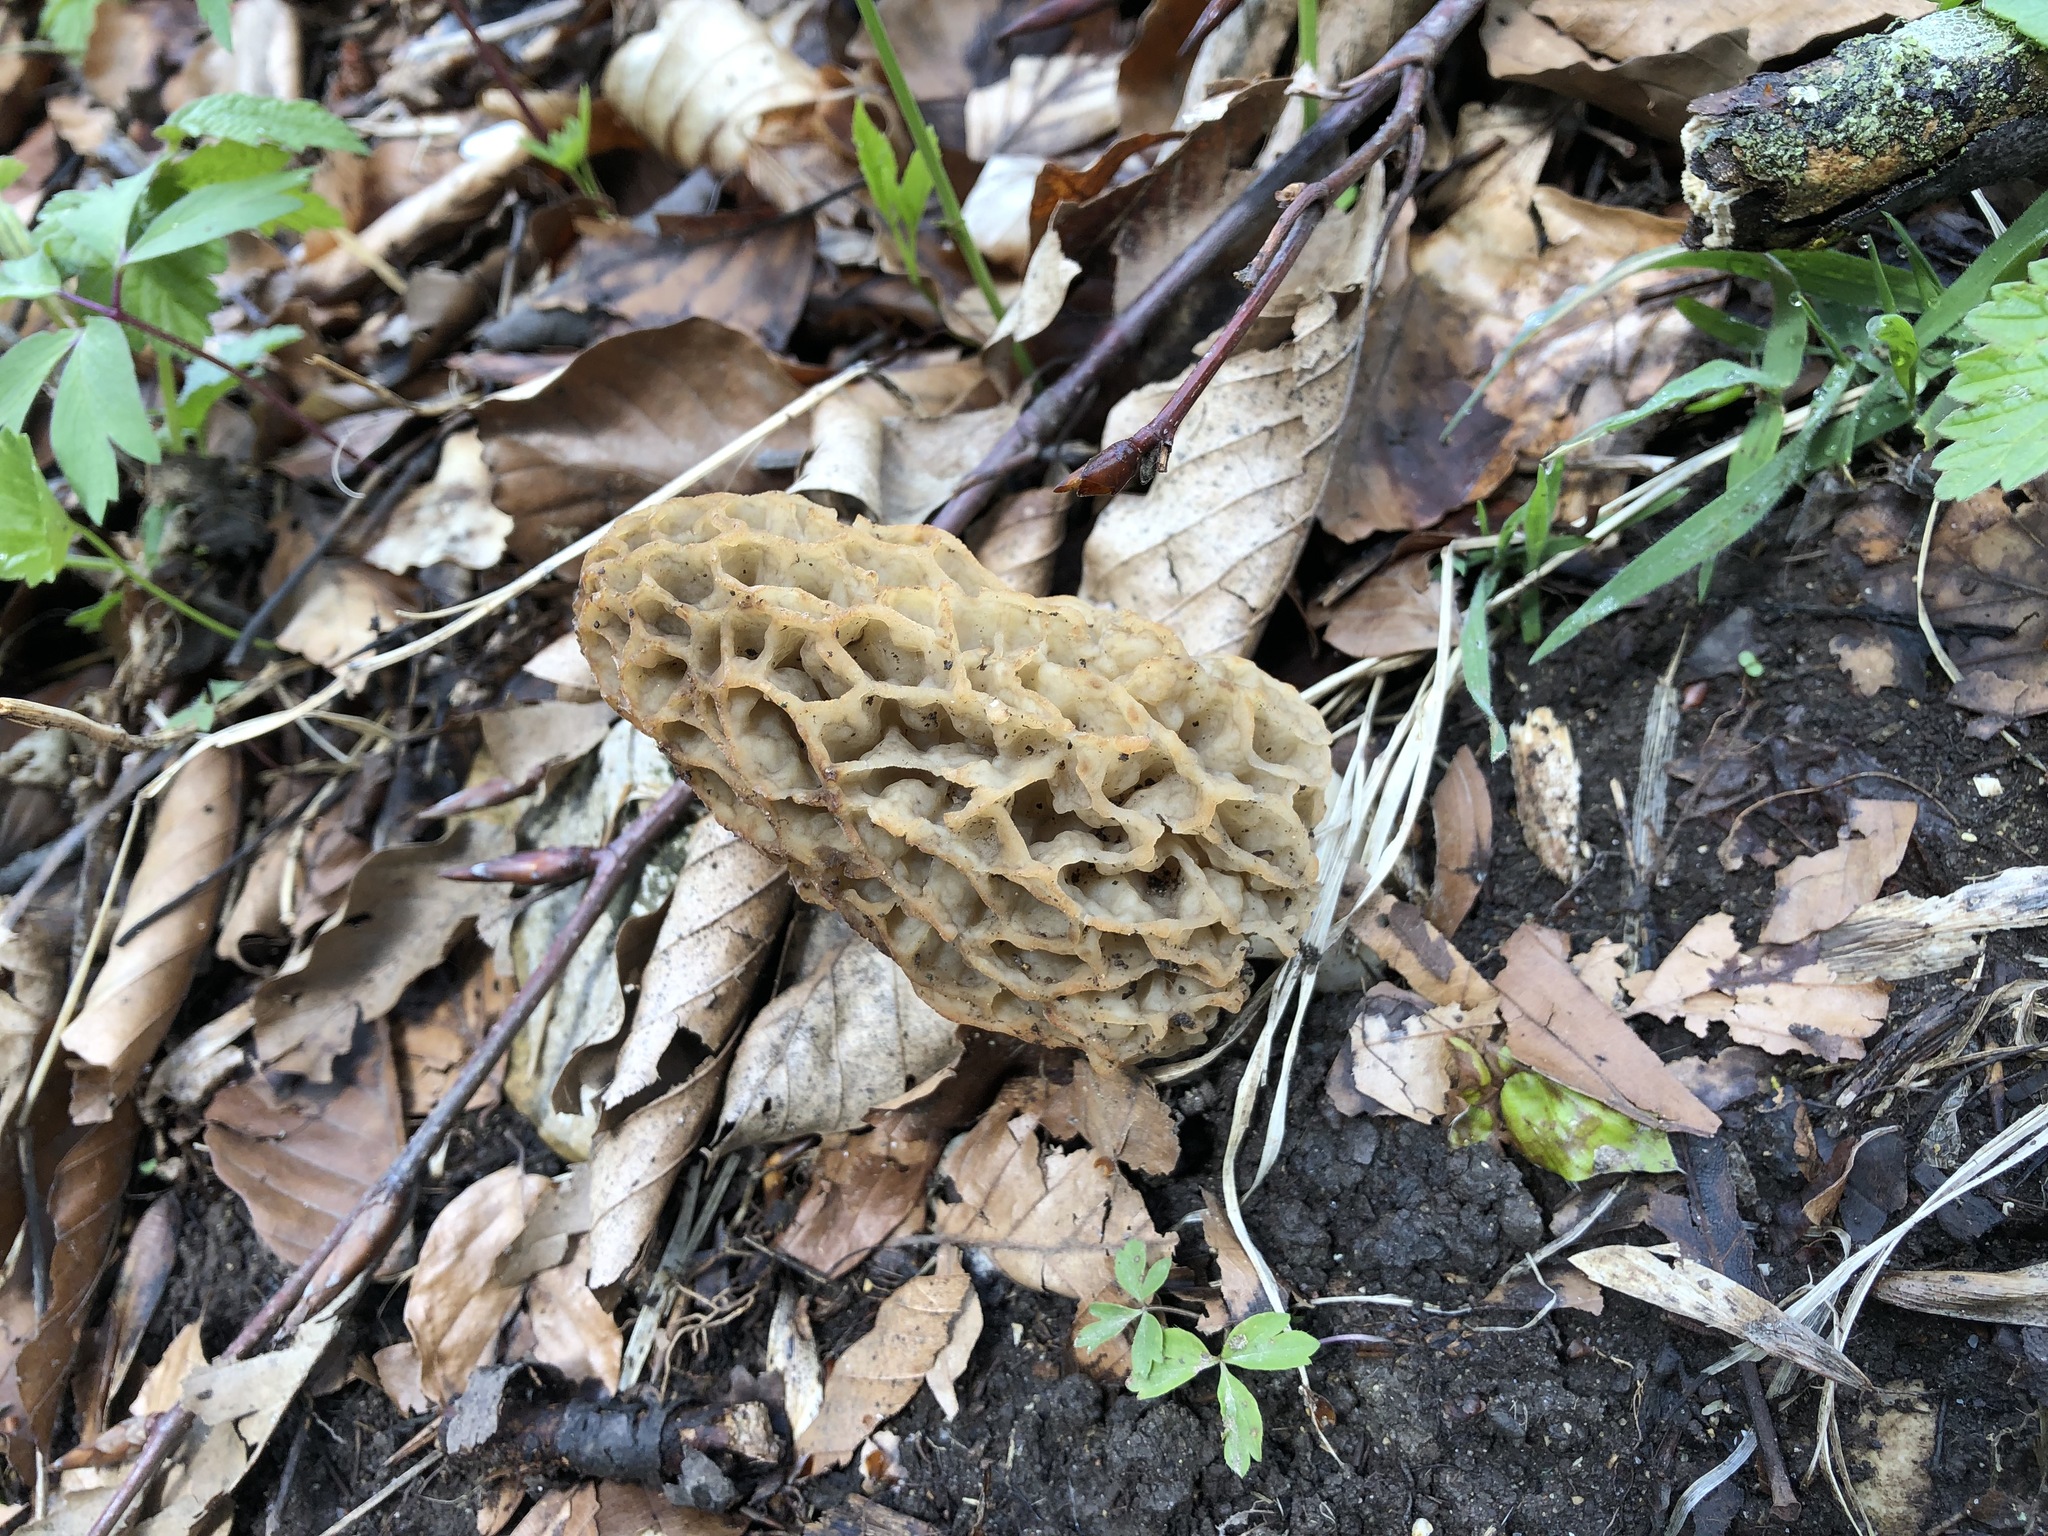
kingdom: Fungi
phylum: Ascomycota
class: Pezizomycetes
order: Pezizales
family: Morchellaceae
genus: Morchella
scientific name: Morchella esculenta
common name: Morel
